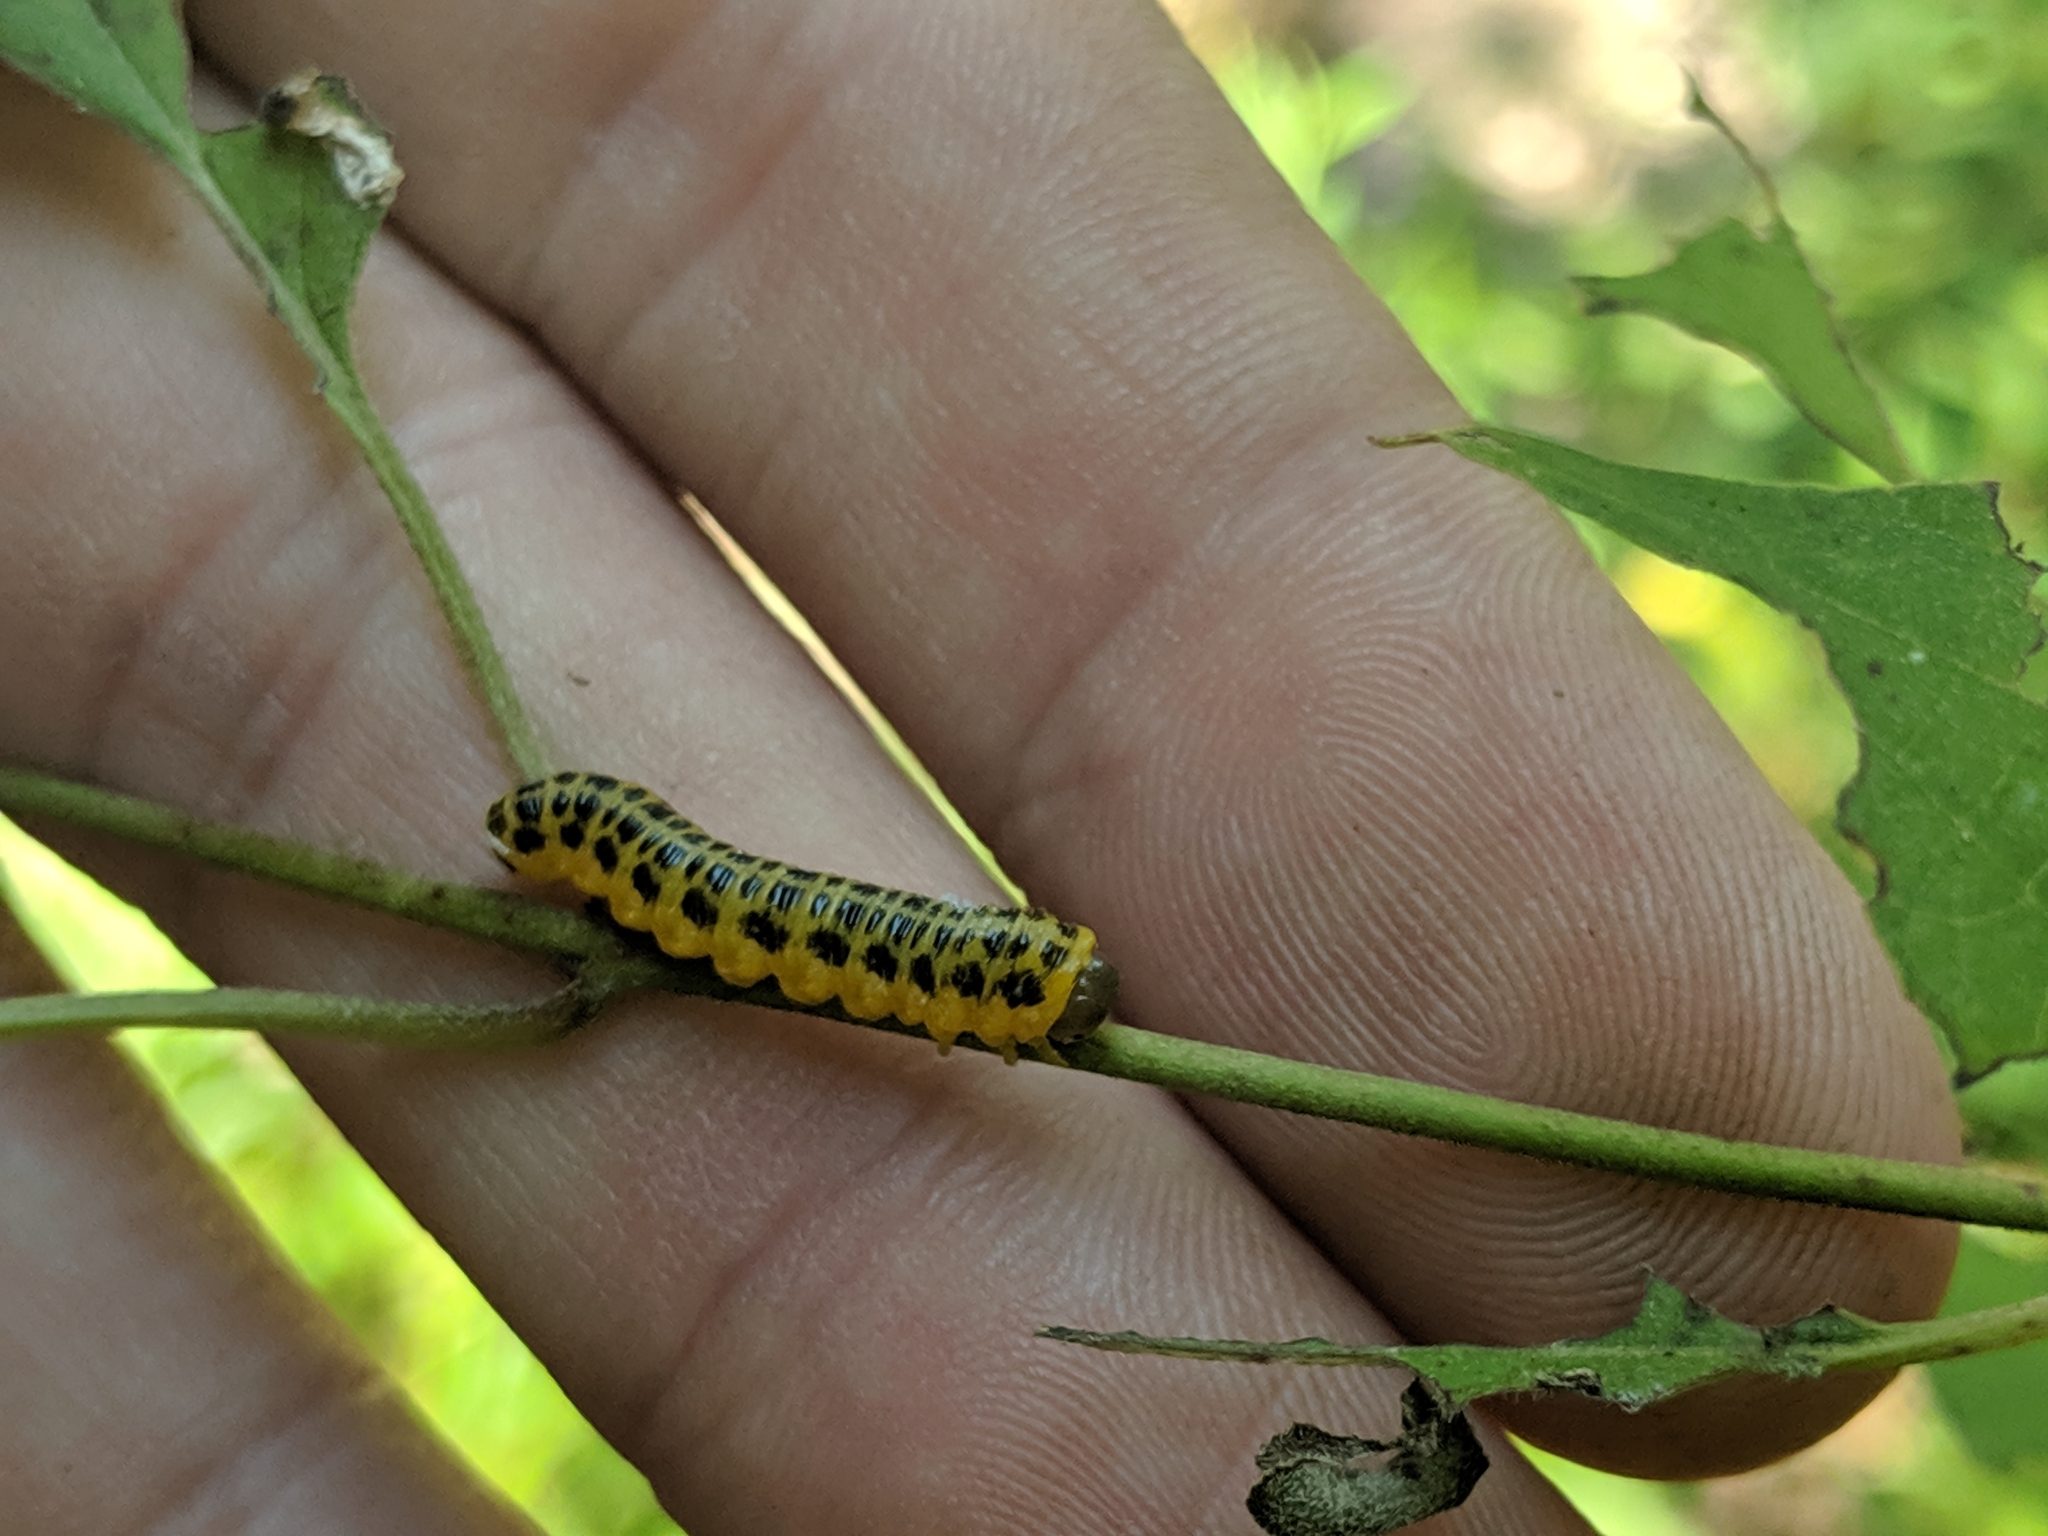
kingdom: Animalia
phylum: Arthropoda
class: Insecta
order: Hymenoptera
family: Tenthredinidae
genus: Macremphytus
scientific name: Macremphytus testaceus
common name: Dogwood sawfly
